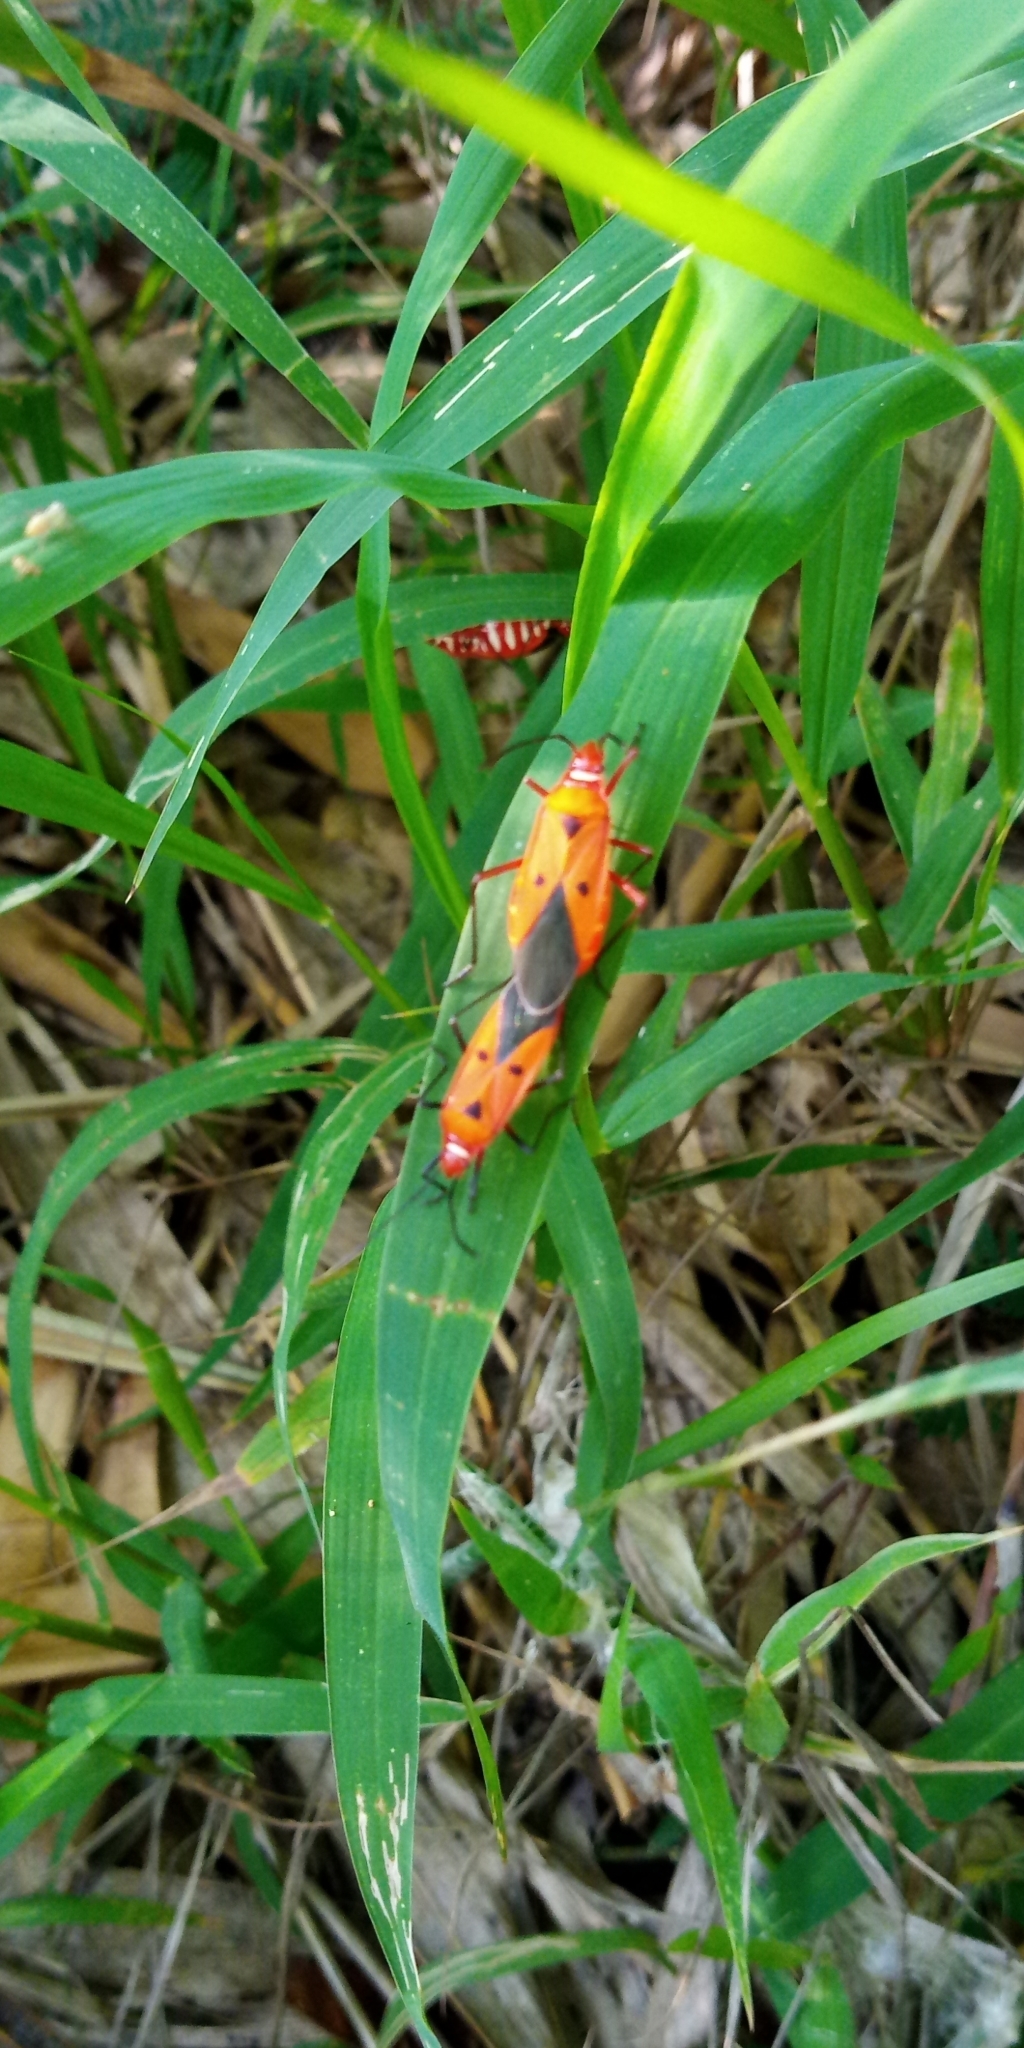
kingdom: Animalia
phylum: Arthropoda
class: Insecta
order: Hemiptera
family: Pyrrhocoridae
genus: Dysdercus
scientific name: Dysdercus cingulatus
